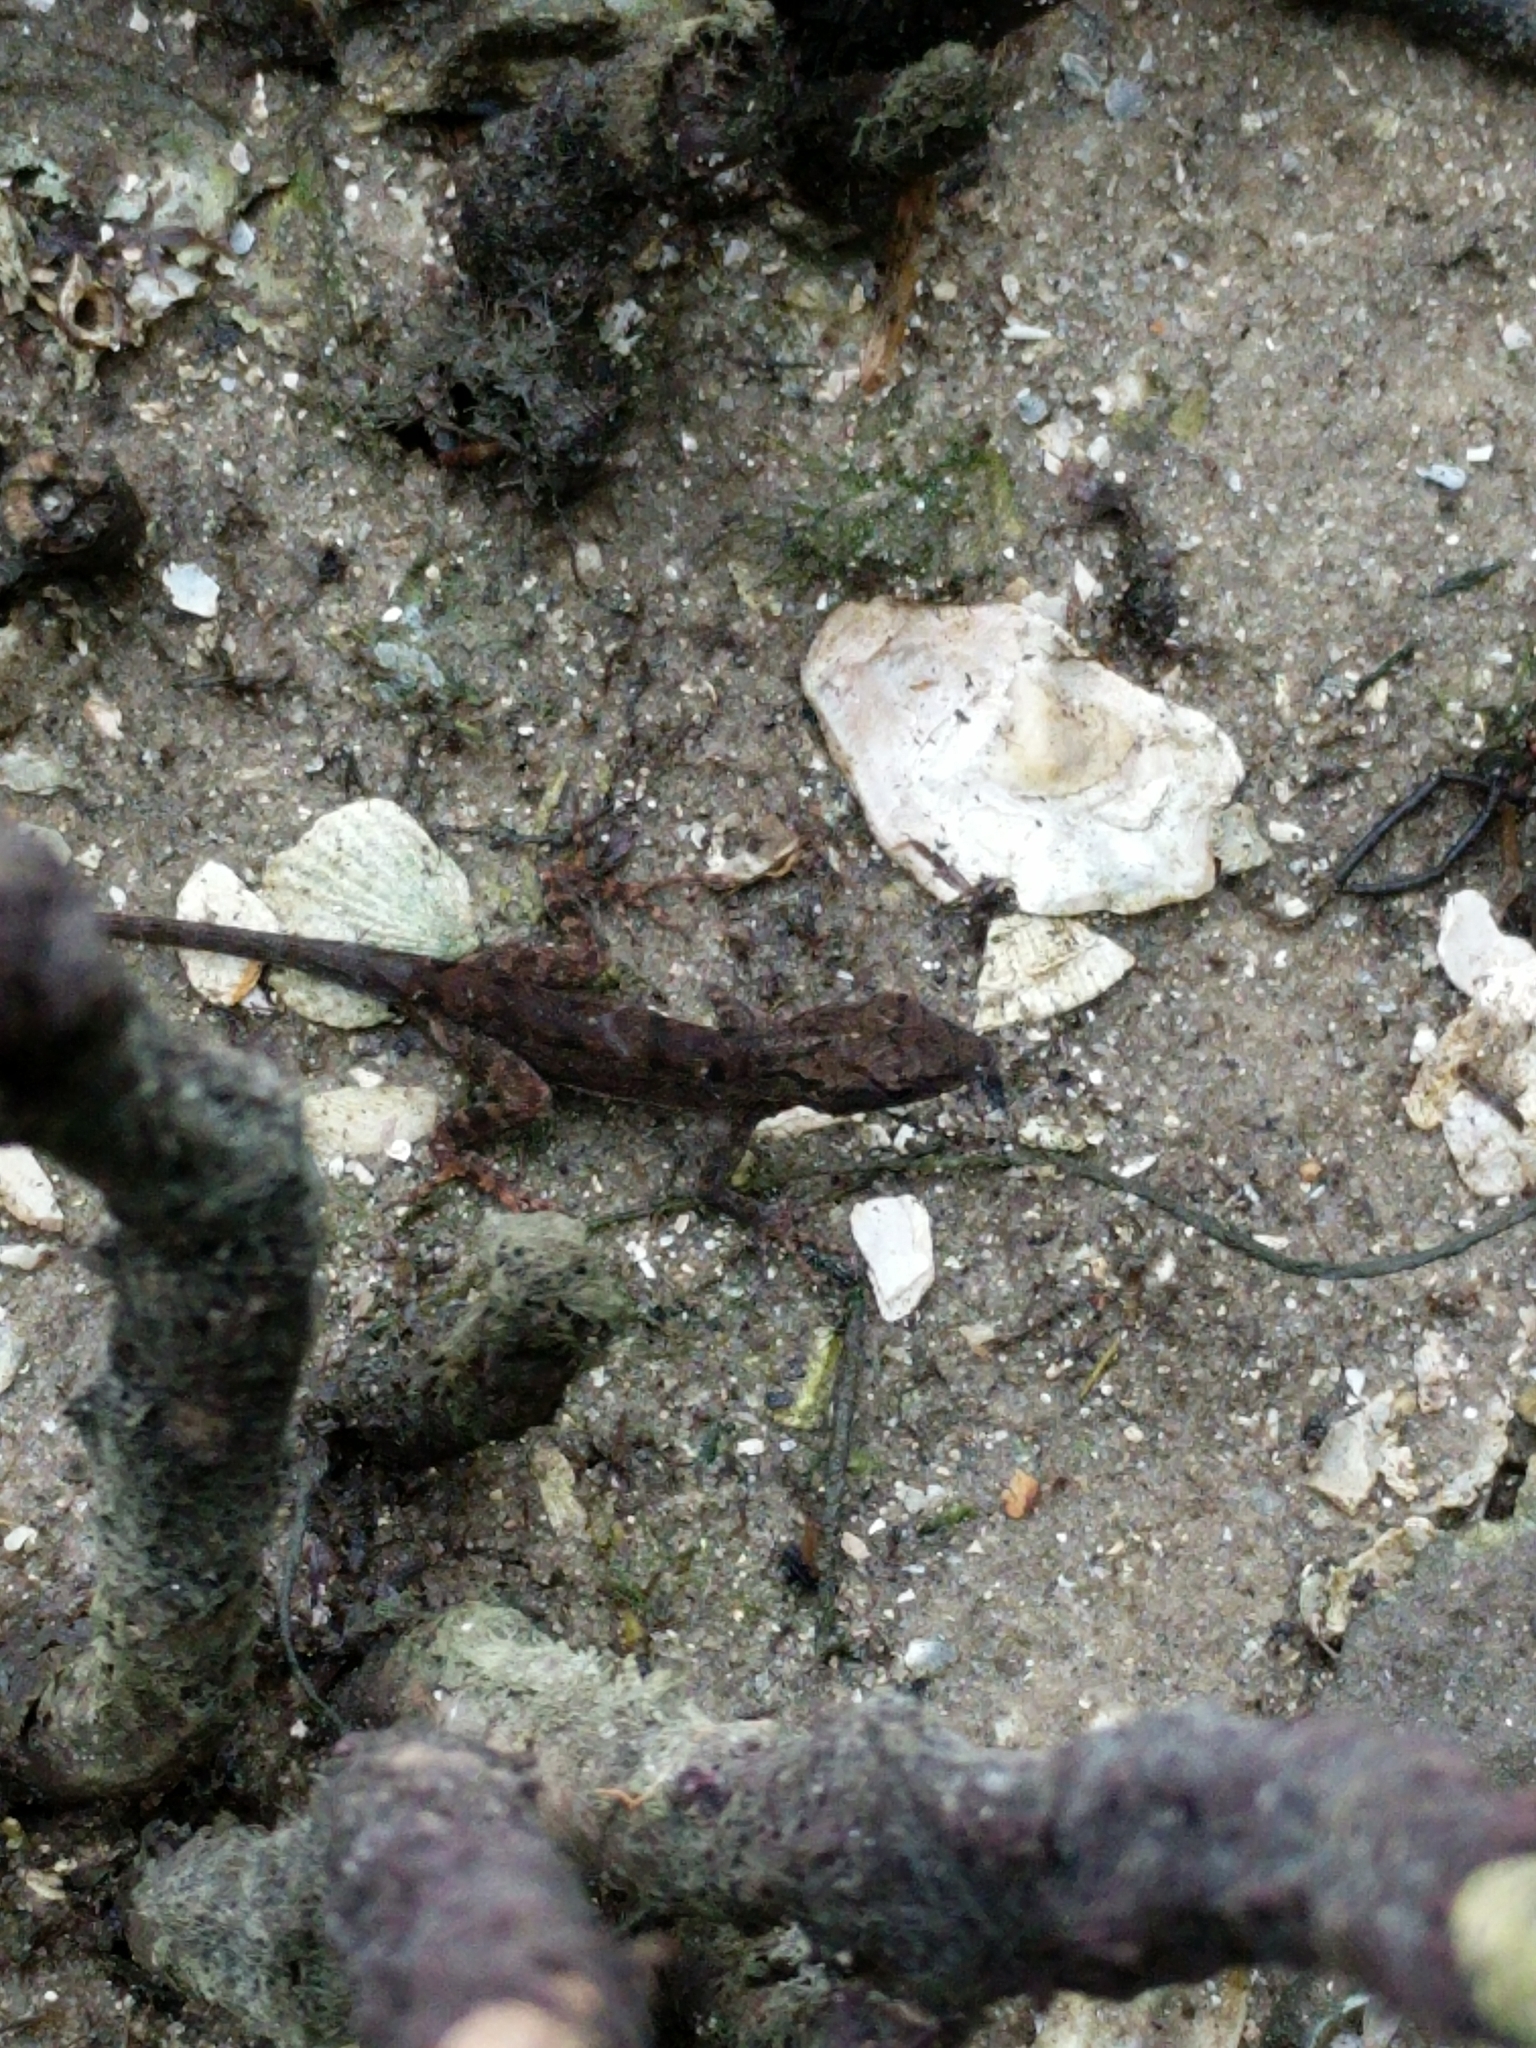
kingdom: Animalia
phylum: Chordata
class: Squamata
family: Dactyloidae
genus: Anolis
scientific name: Anolis sagrei
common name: Brown anole
